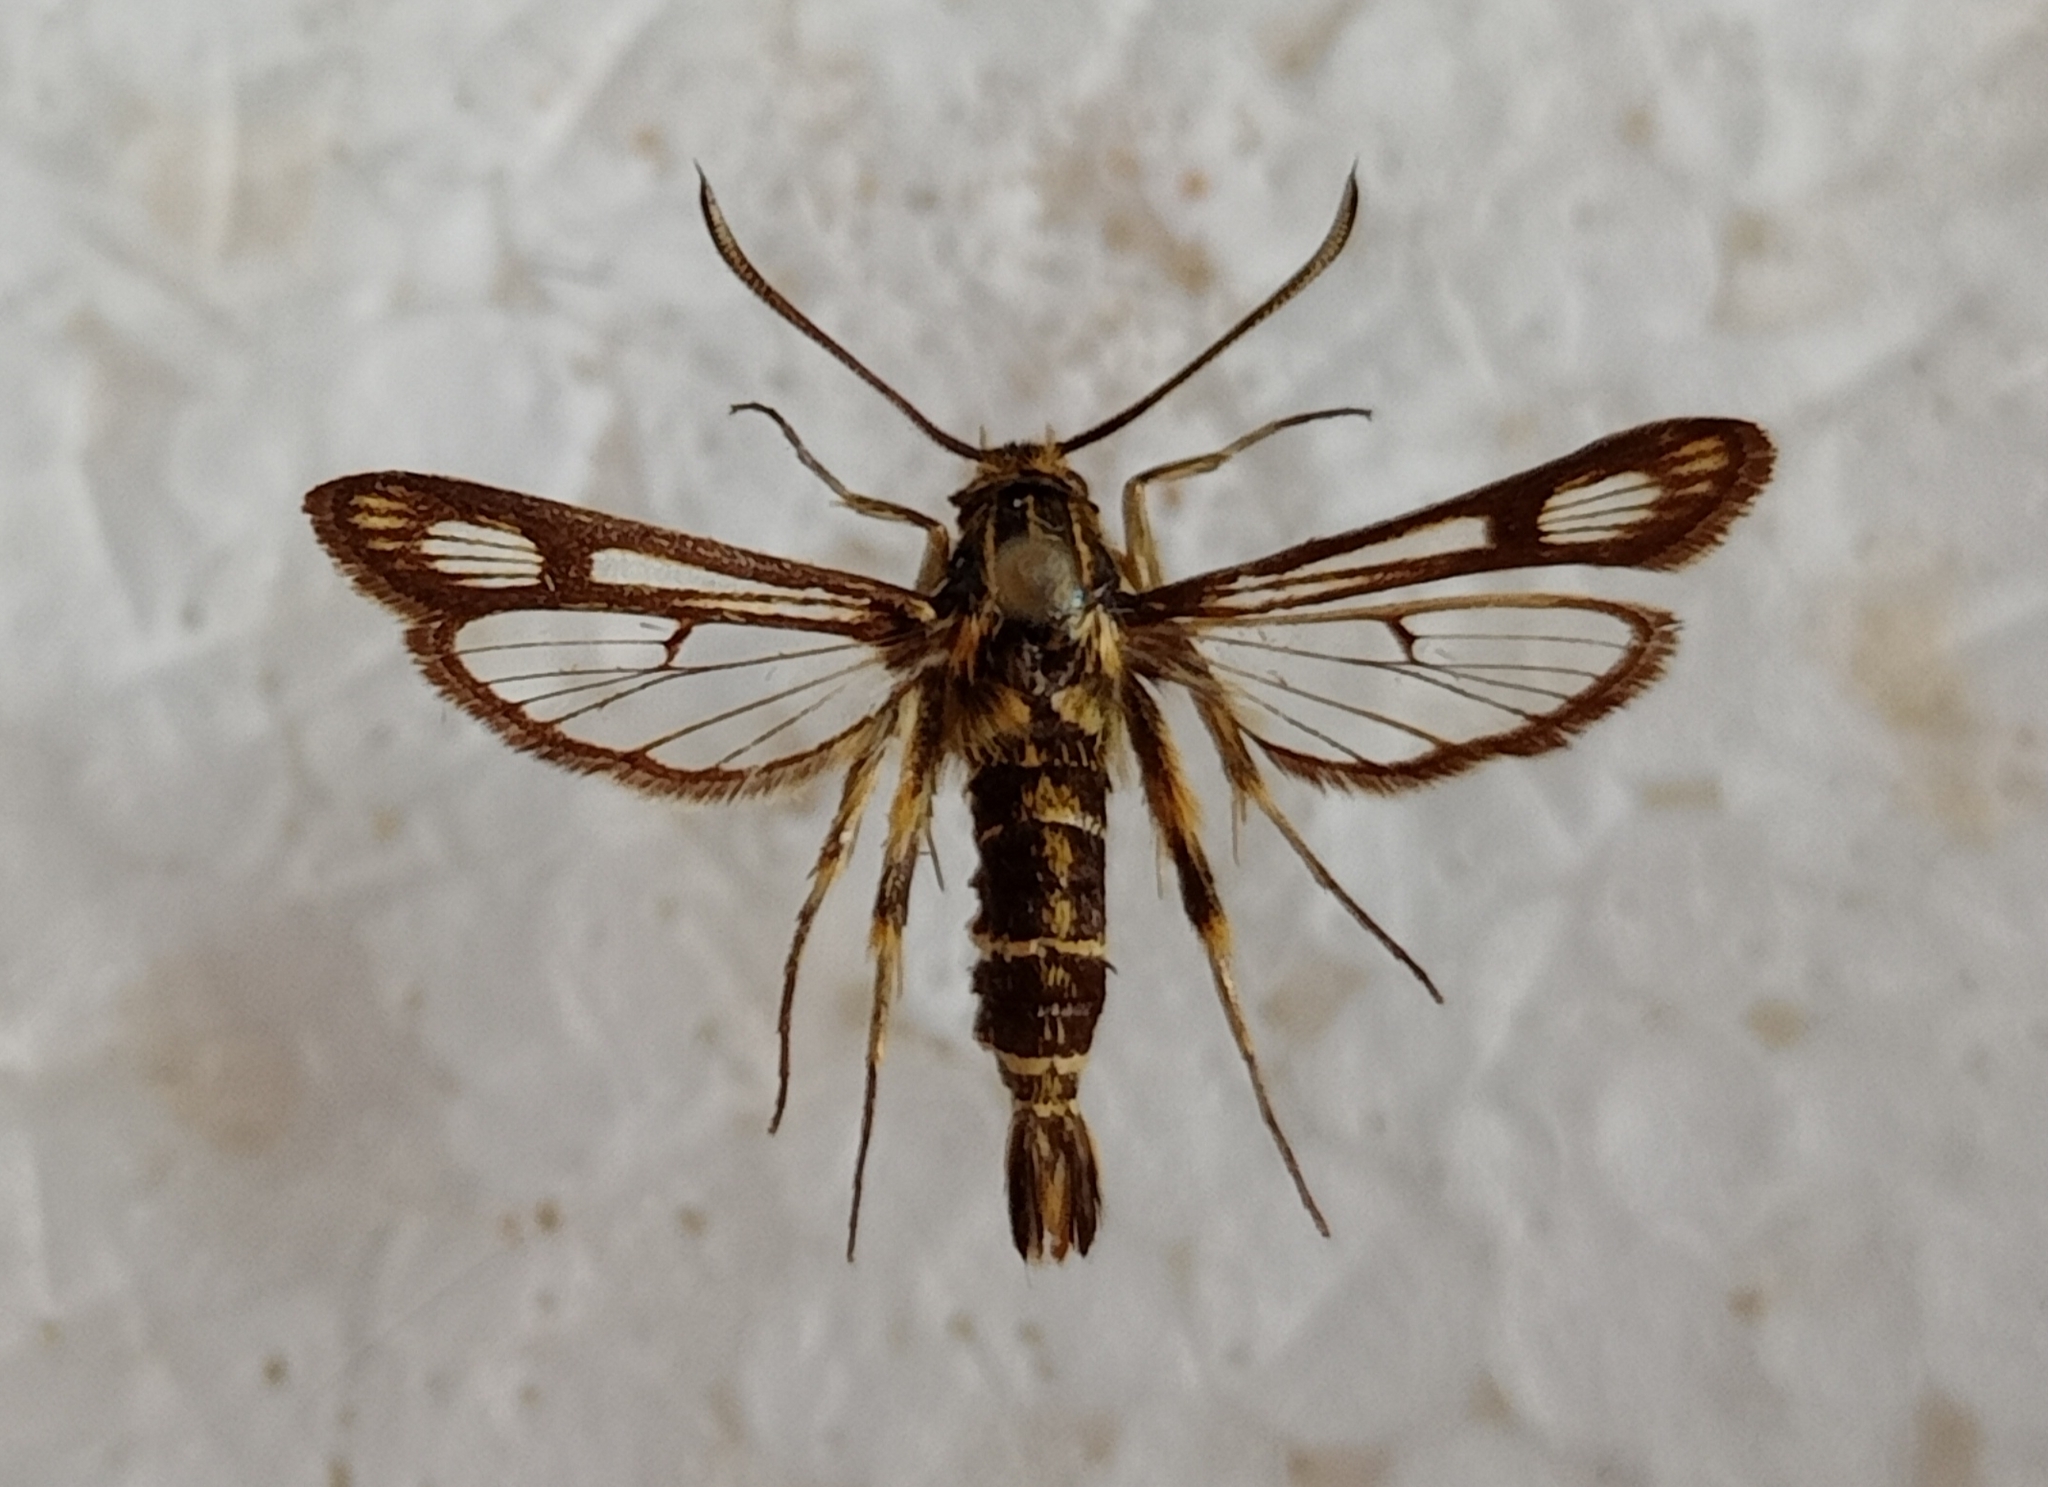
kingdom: Animalia
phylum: Arthropoda
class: Insecta
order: Lepidoptera
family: Sesiidae
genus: Chamaesphecia
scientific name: Chamaesphecia bibioniformis
